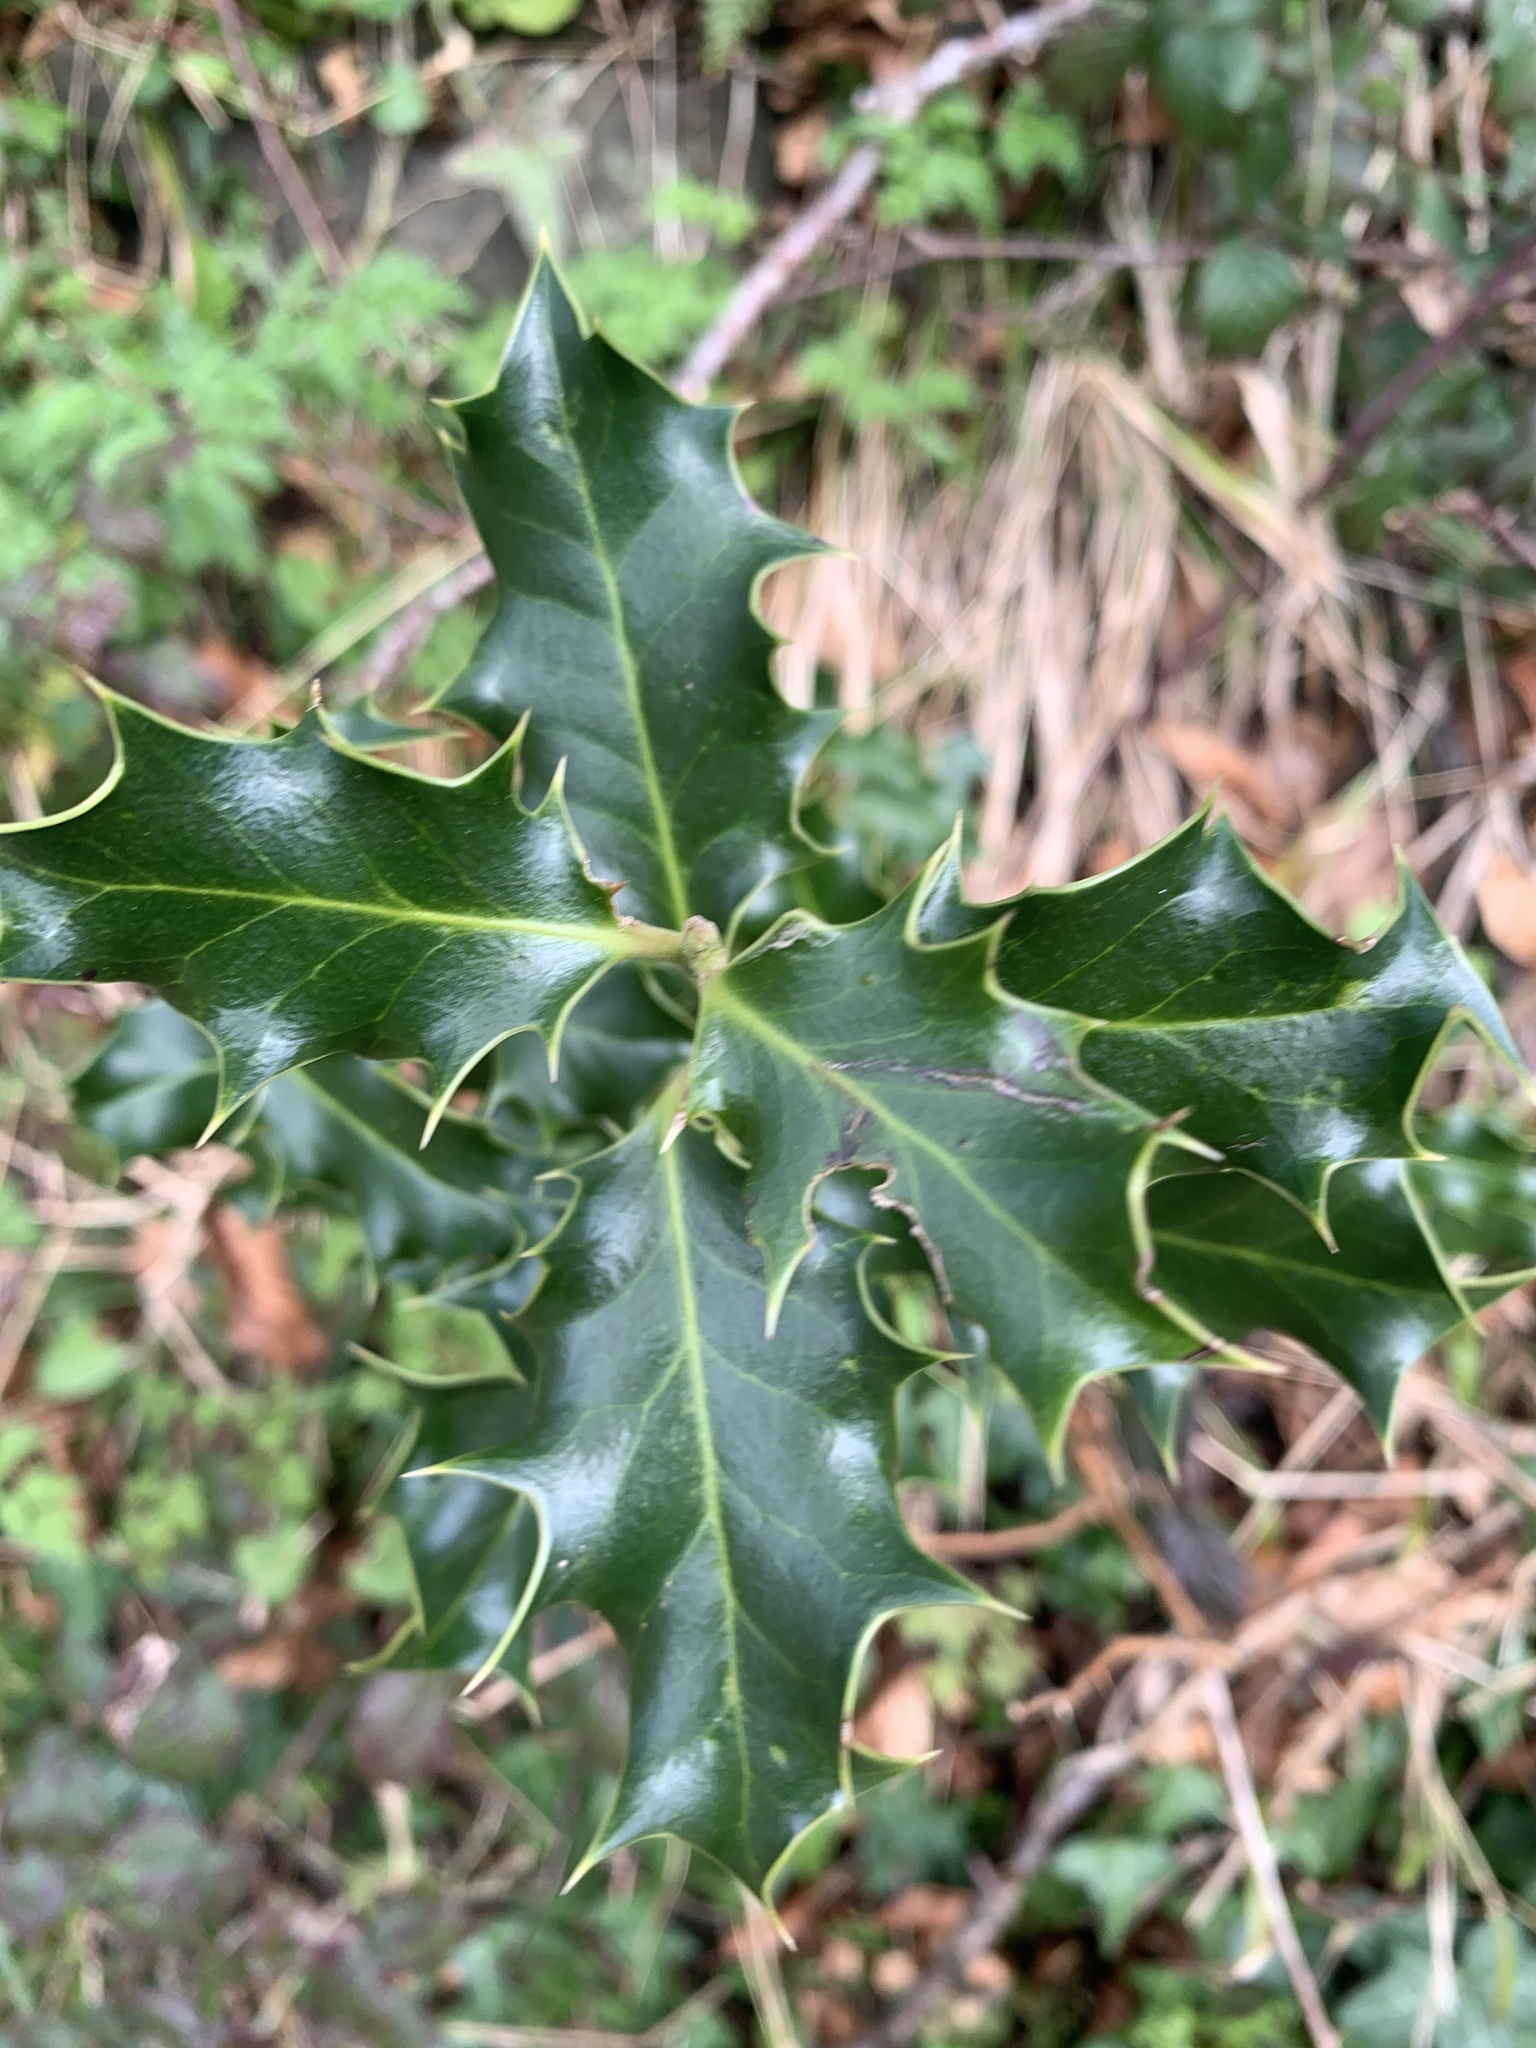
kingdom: Plantae
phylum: Tracheophyta
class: Magnoliopsida
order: Aquifoliales
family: Aquifoliaceae
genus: Ilex
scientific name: Ilex aquifolium
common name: English holly
